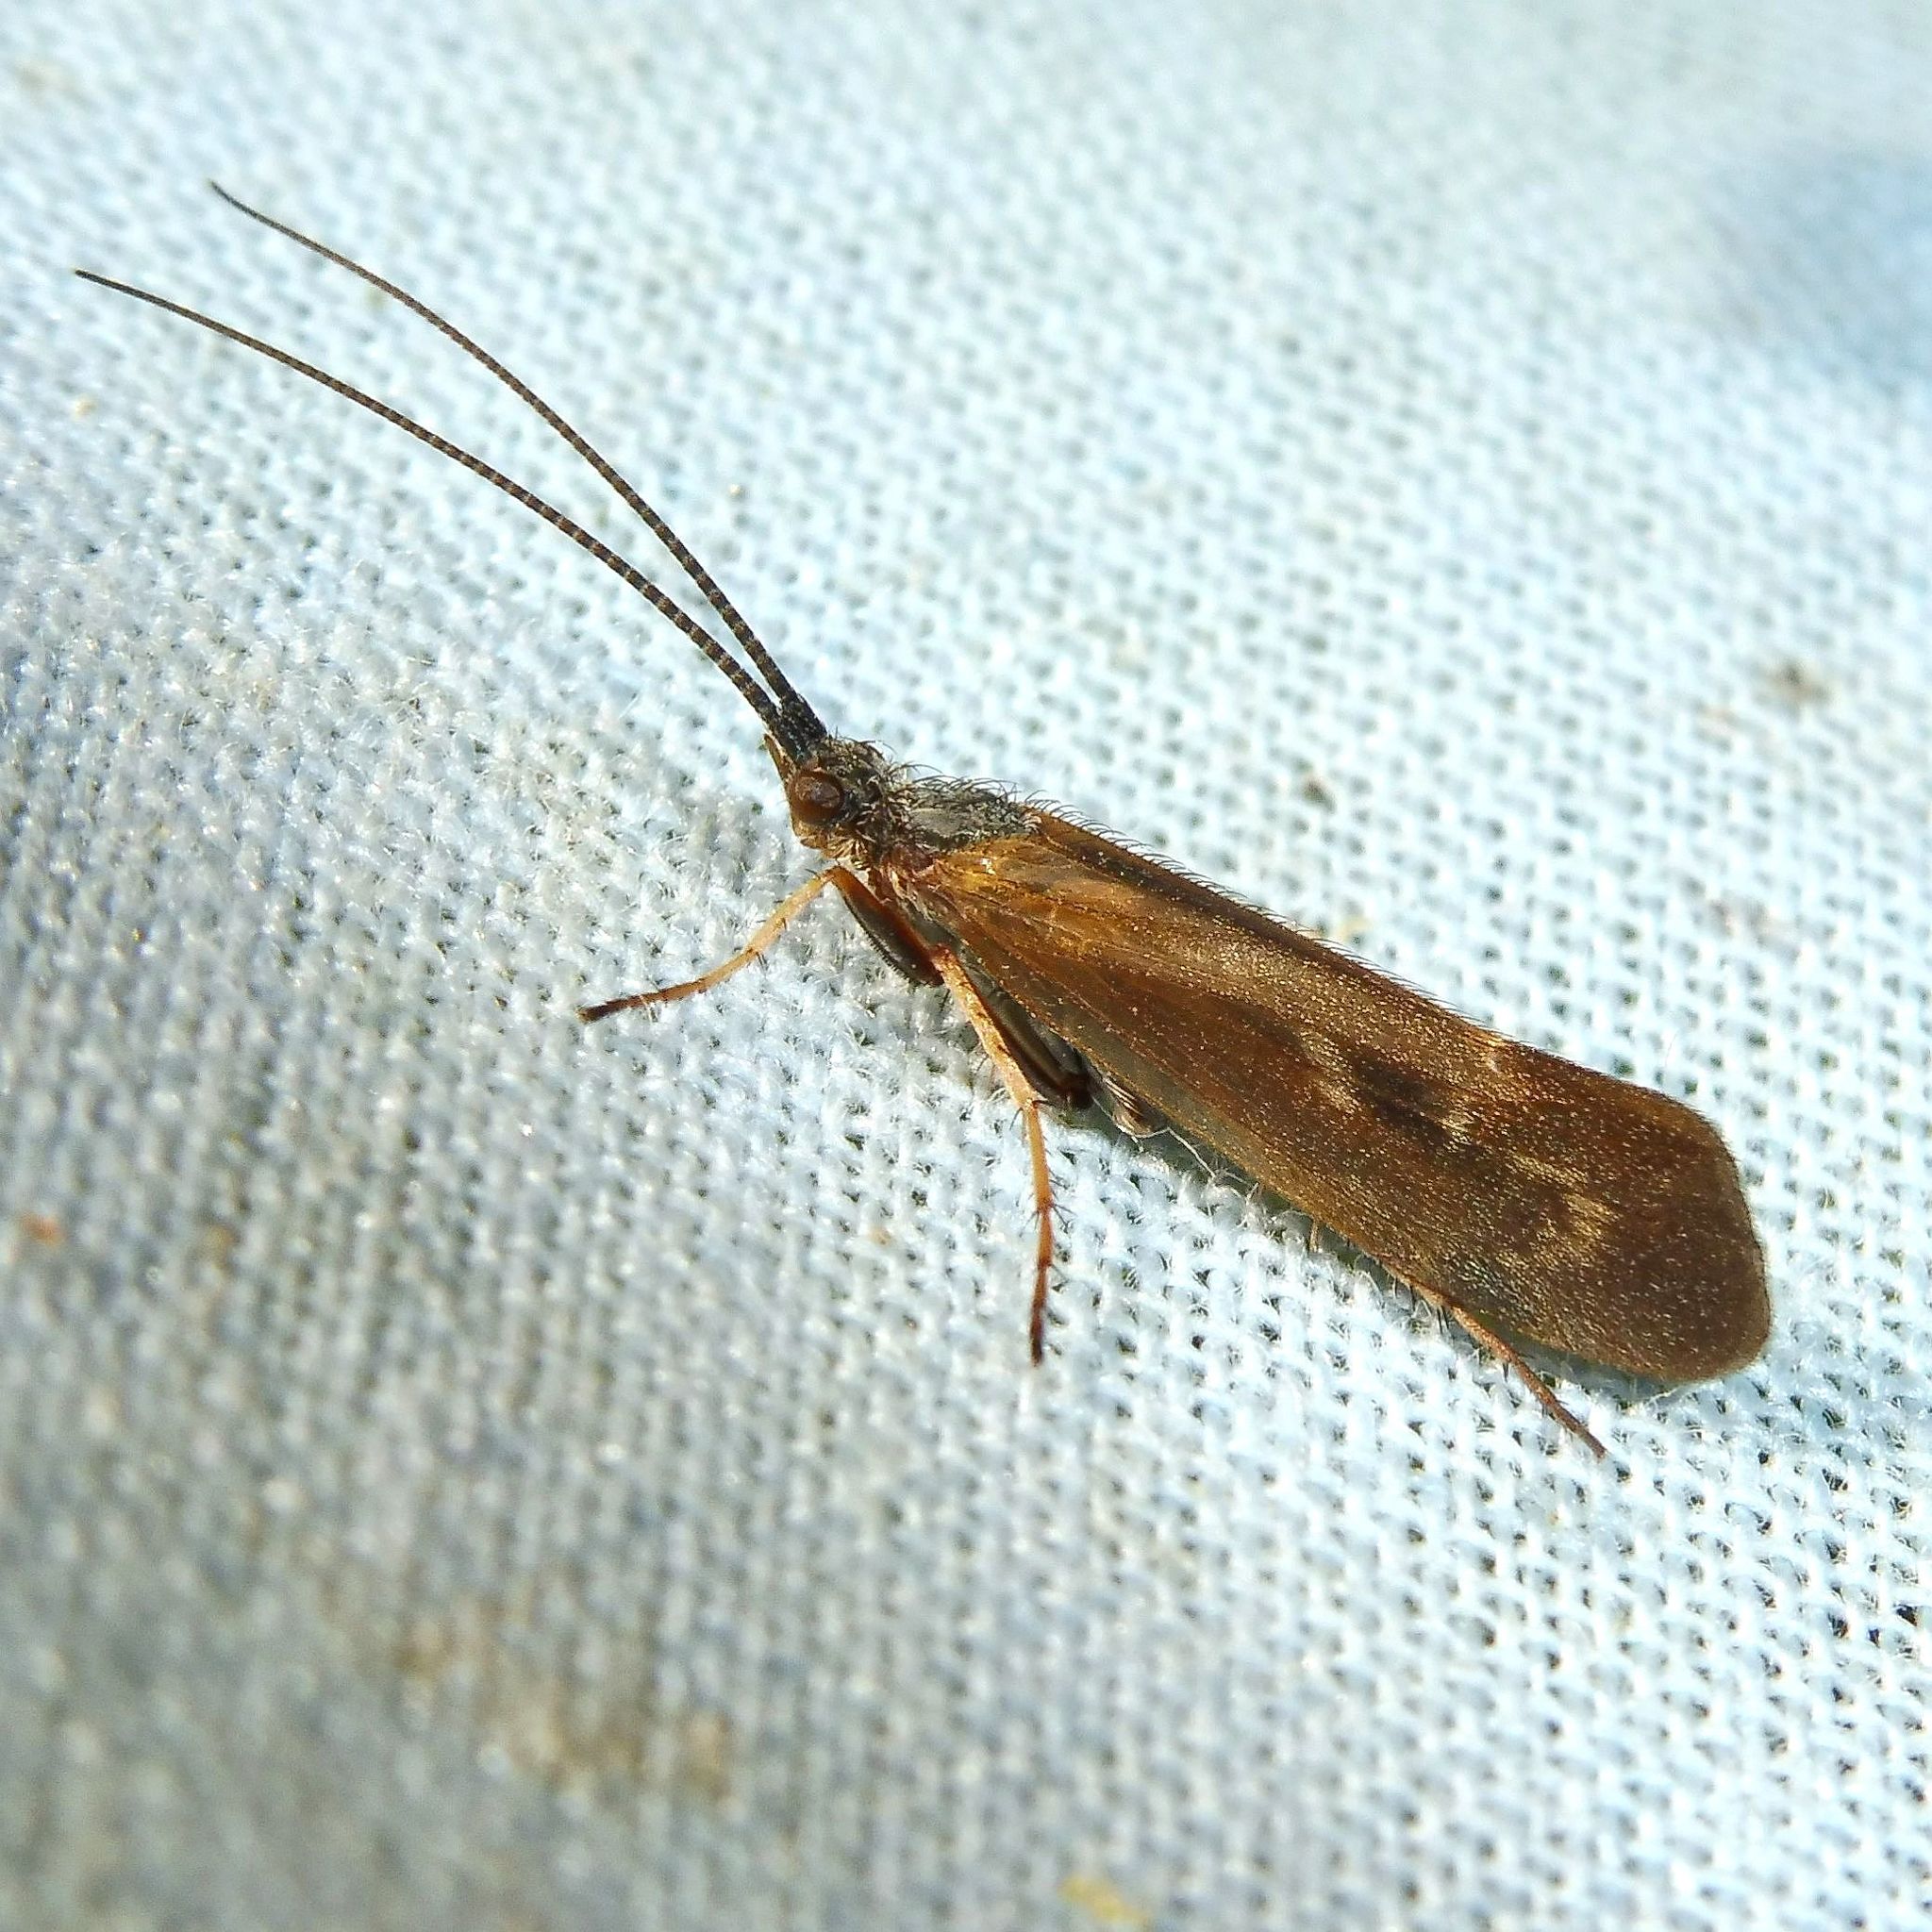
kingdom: Animalia
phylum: Arthropoda
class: Insecta
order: Trichoptera
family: Limnephilidae
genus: Limnephilus
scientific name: Limnephilus auricula
